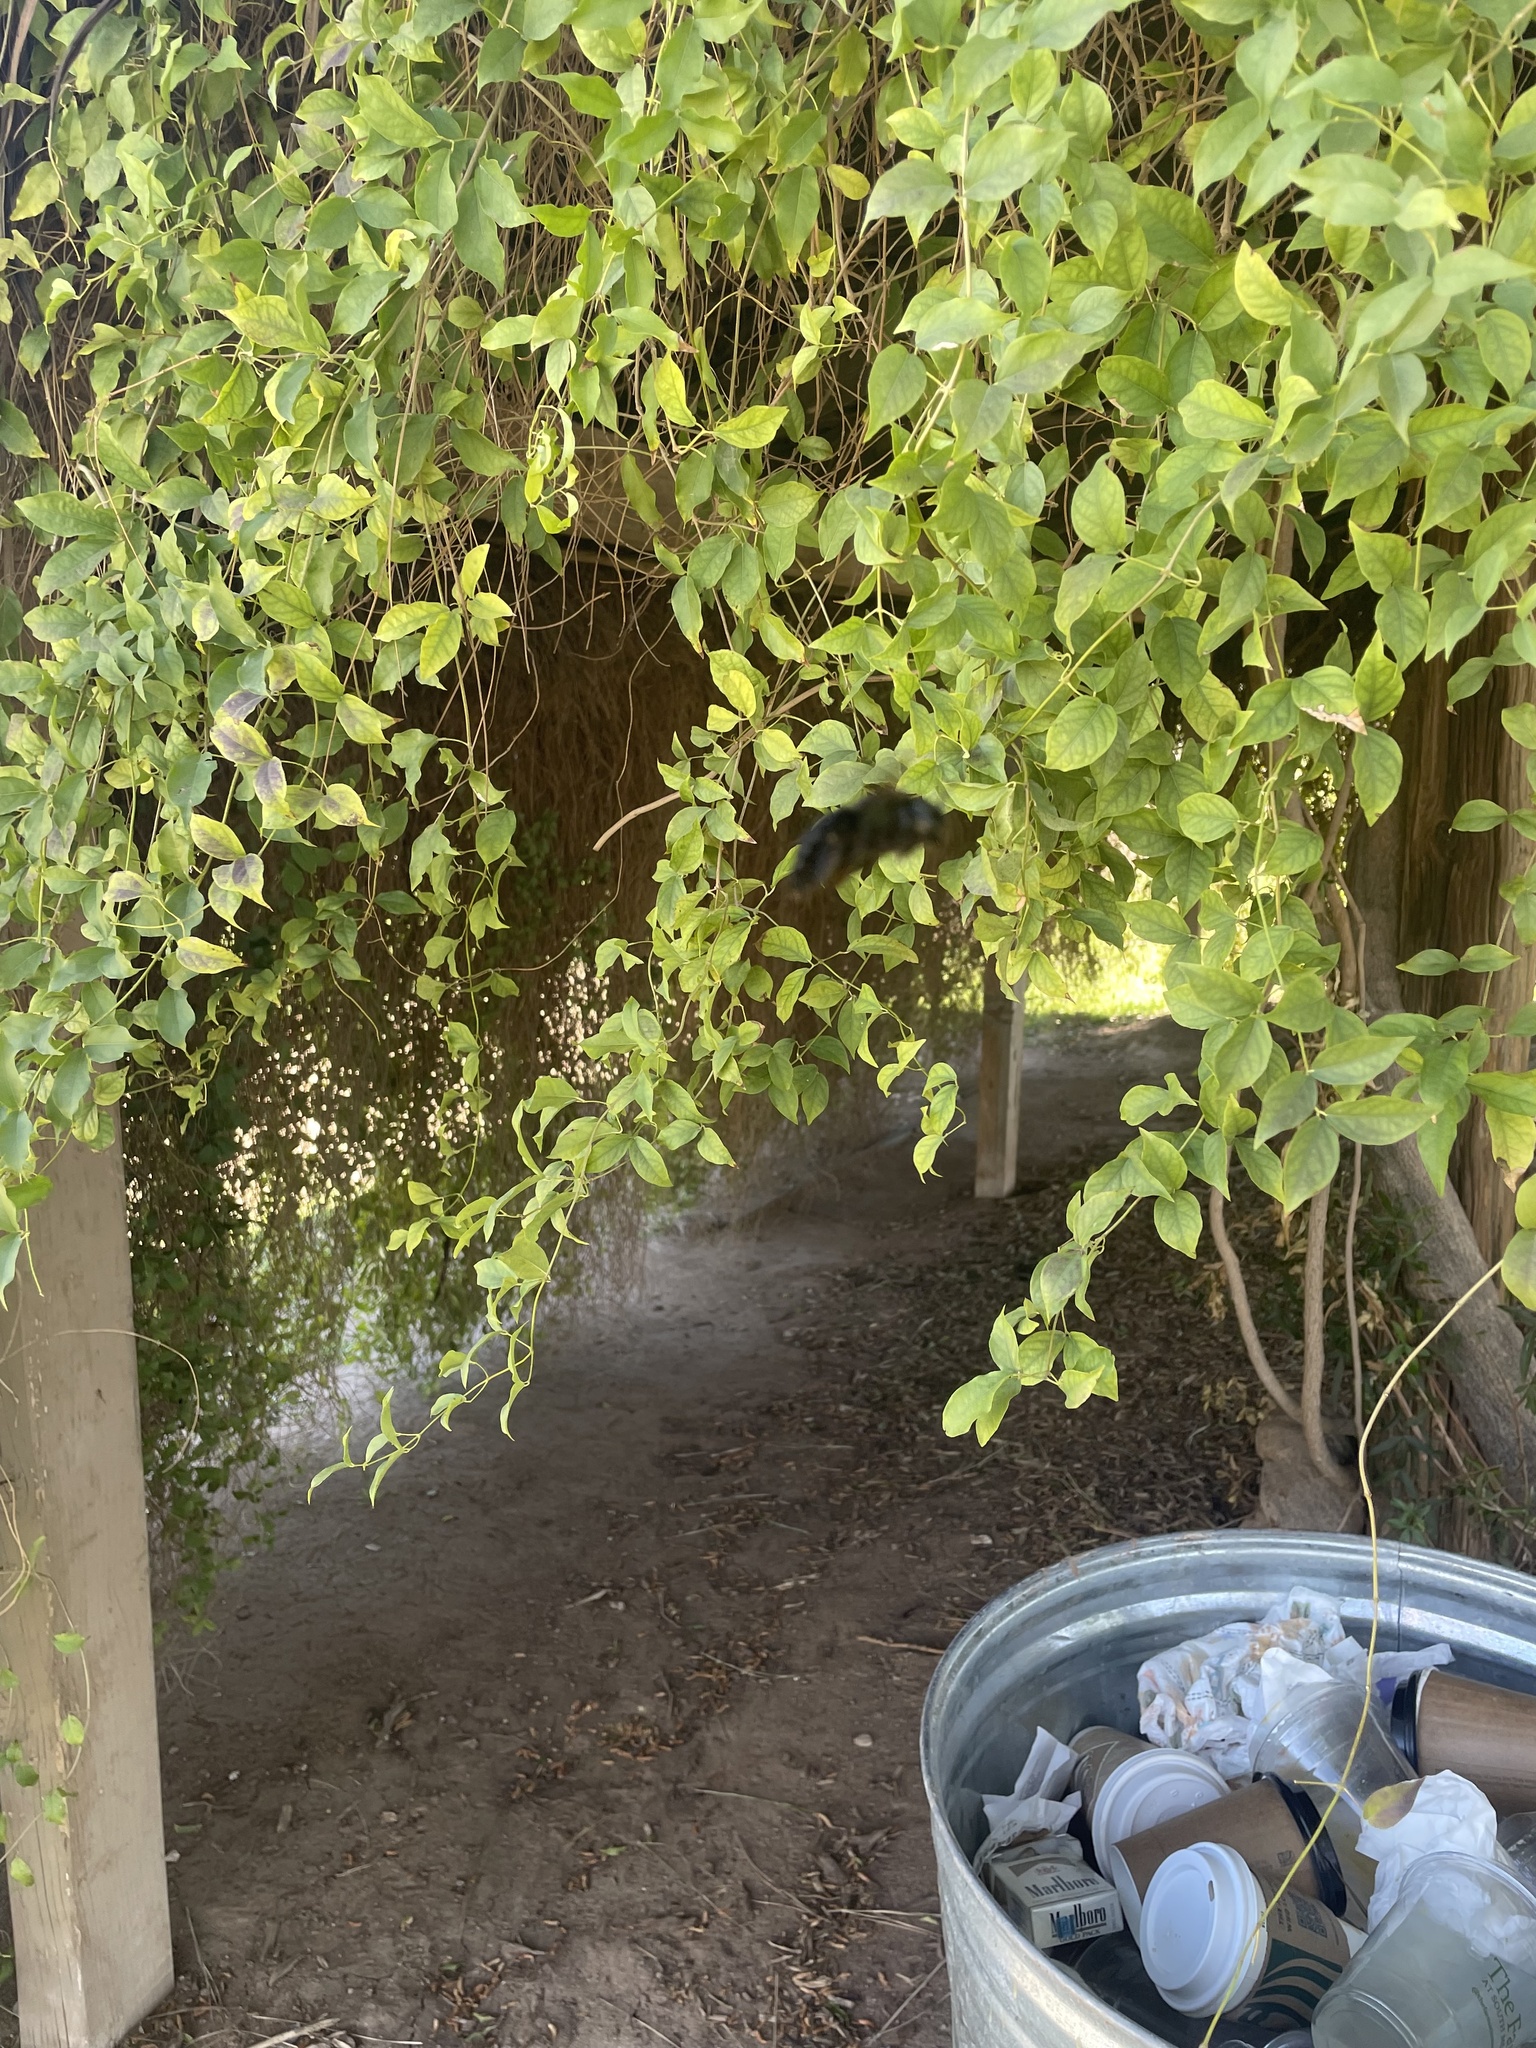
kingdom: Animalia
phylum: Arthropoda
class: Insecta
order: Hymenoptera
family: Apidae
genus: Xylocopa
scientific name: Xylocopa sonorina
